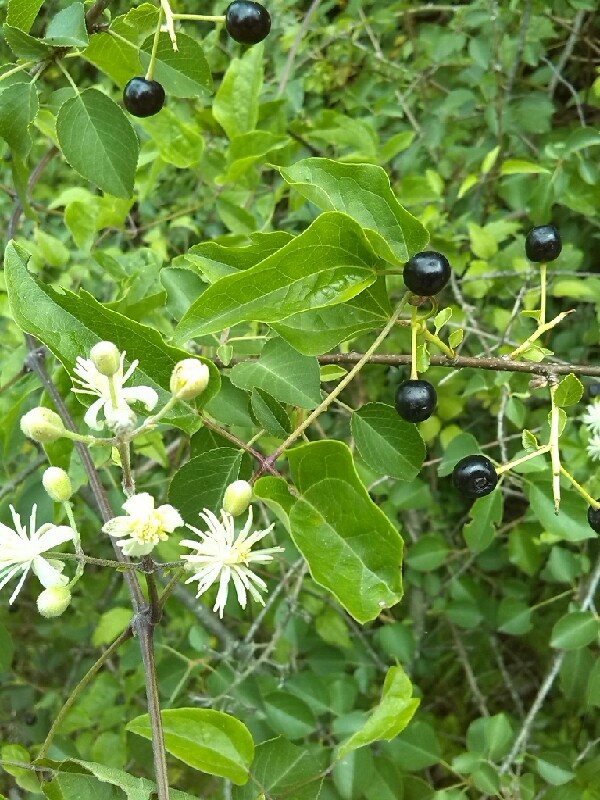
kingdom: Plantae
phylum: Tracheophyta
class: Magnoliopsida
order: Rosales
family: Rosaceae
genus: Prunus
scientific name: Prunus mahaleb
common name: Mahaleb cherry
